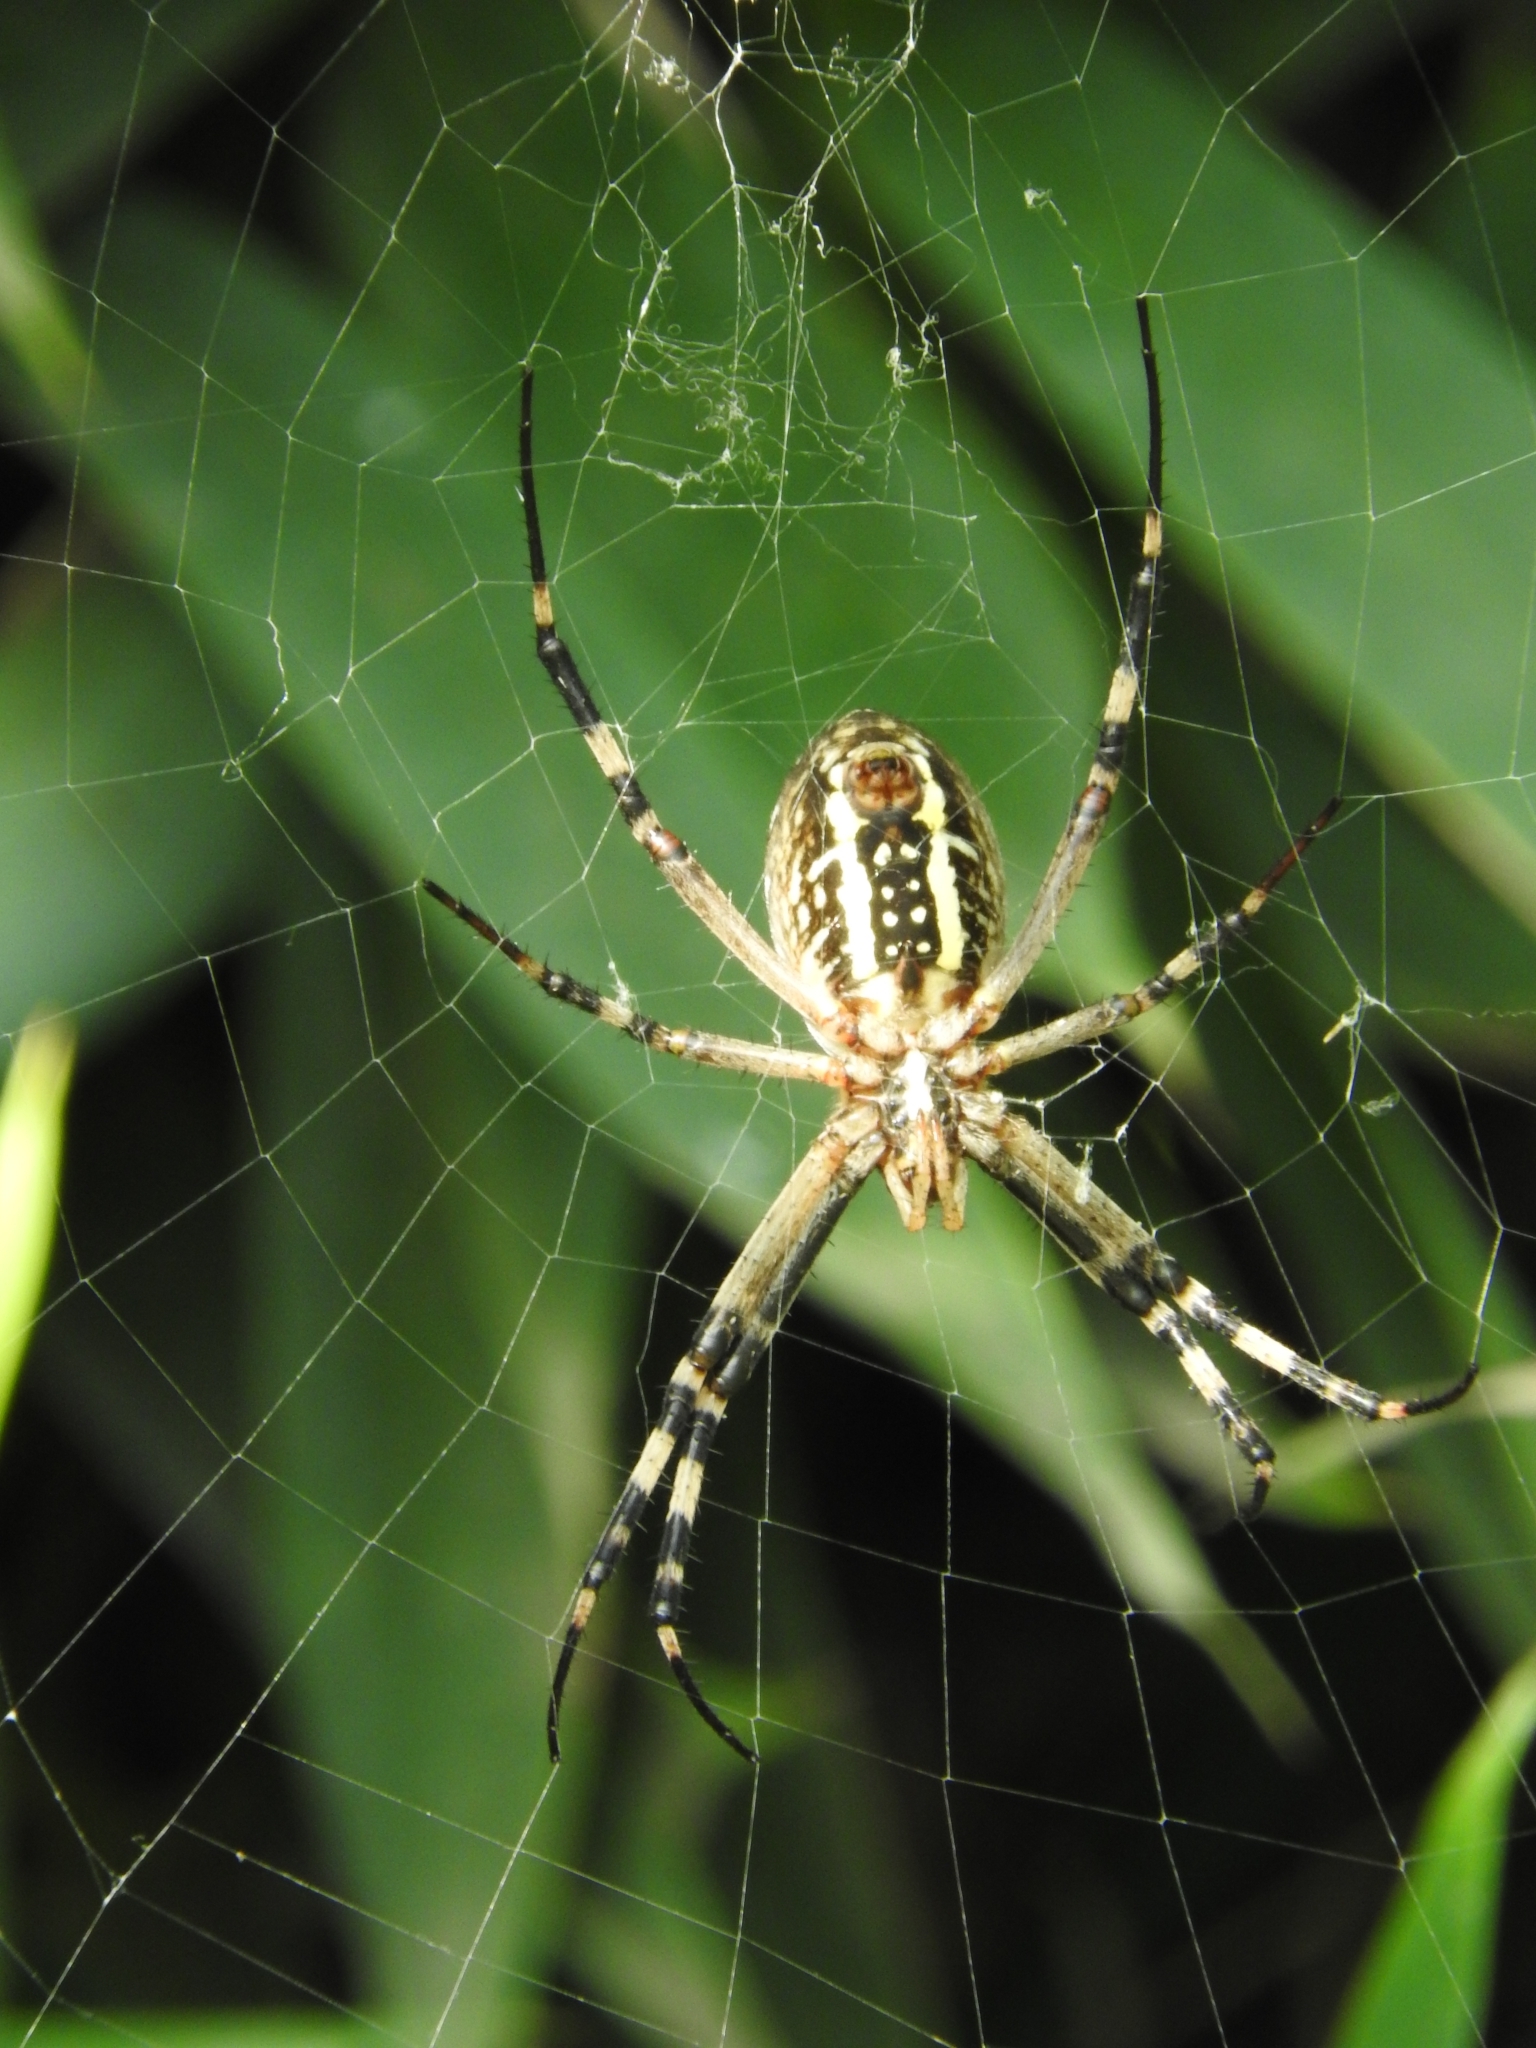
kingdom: Animalia
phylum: Arthropoda
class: Arachnida
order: Araneae
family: Araneidae
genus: Argiope
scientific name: Argiope bruennichi
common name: Wasp spider
